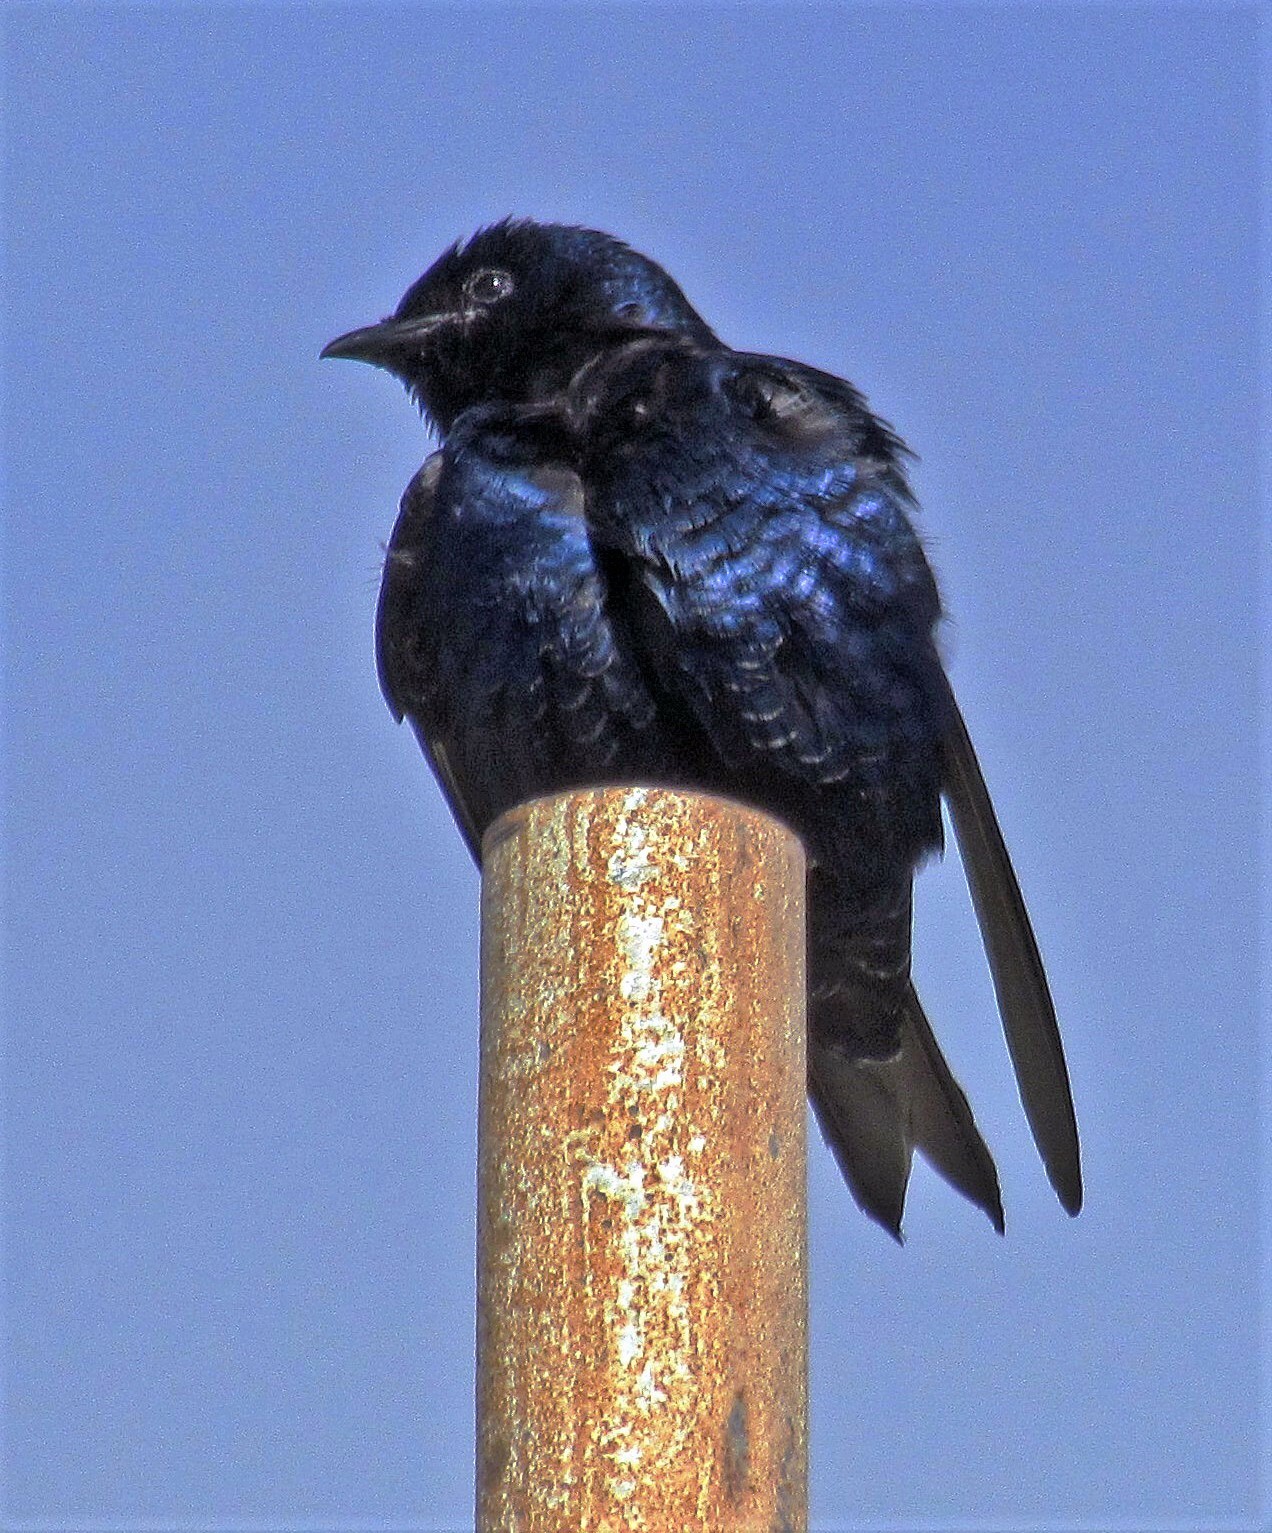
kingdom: Animalia
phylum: Chordata
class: Aves
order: Passeriformes
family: Hirundinidae
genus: Progne
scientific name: Progne elegans
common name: Southern martin
